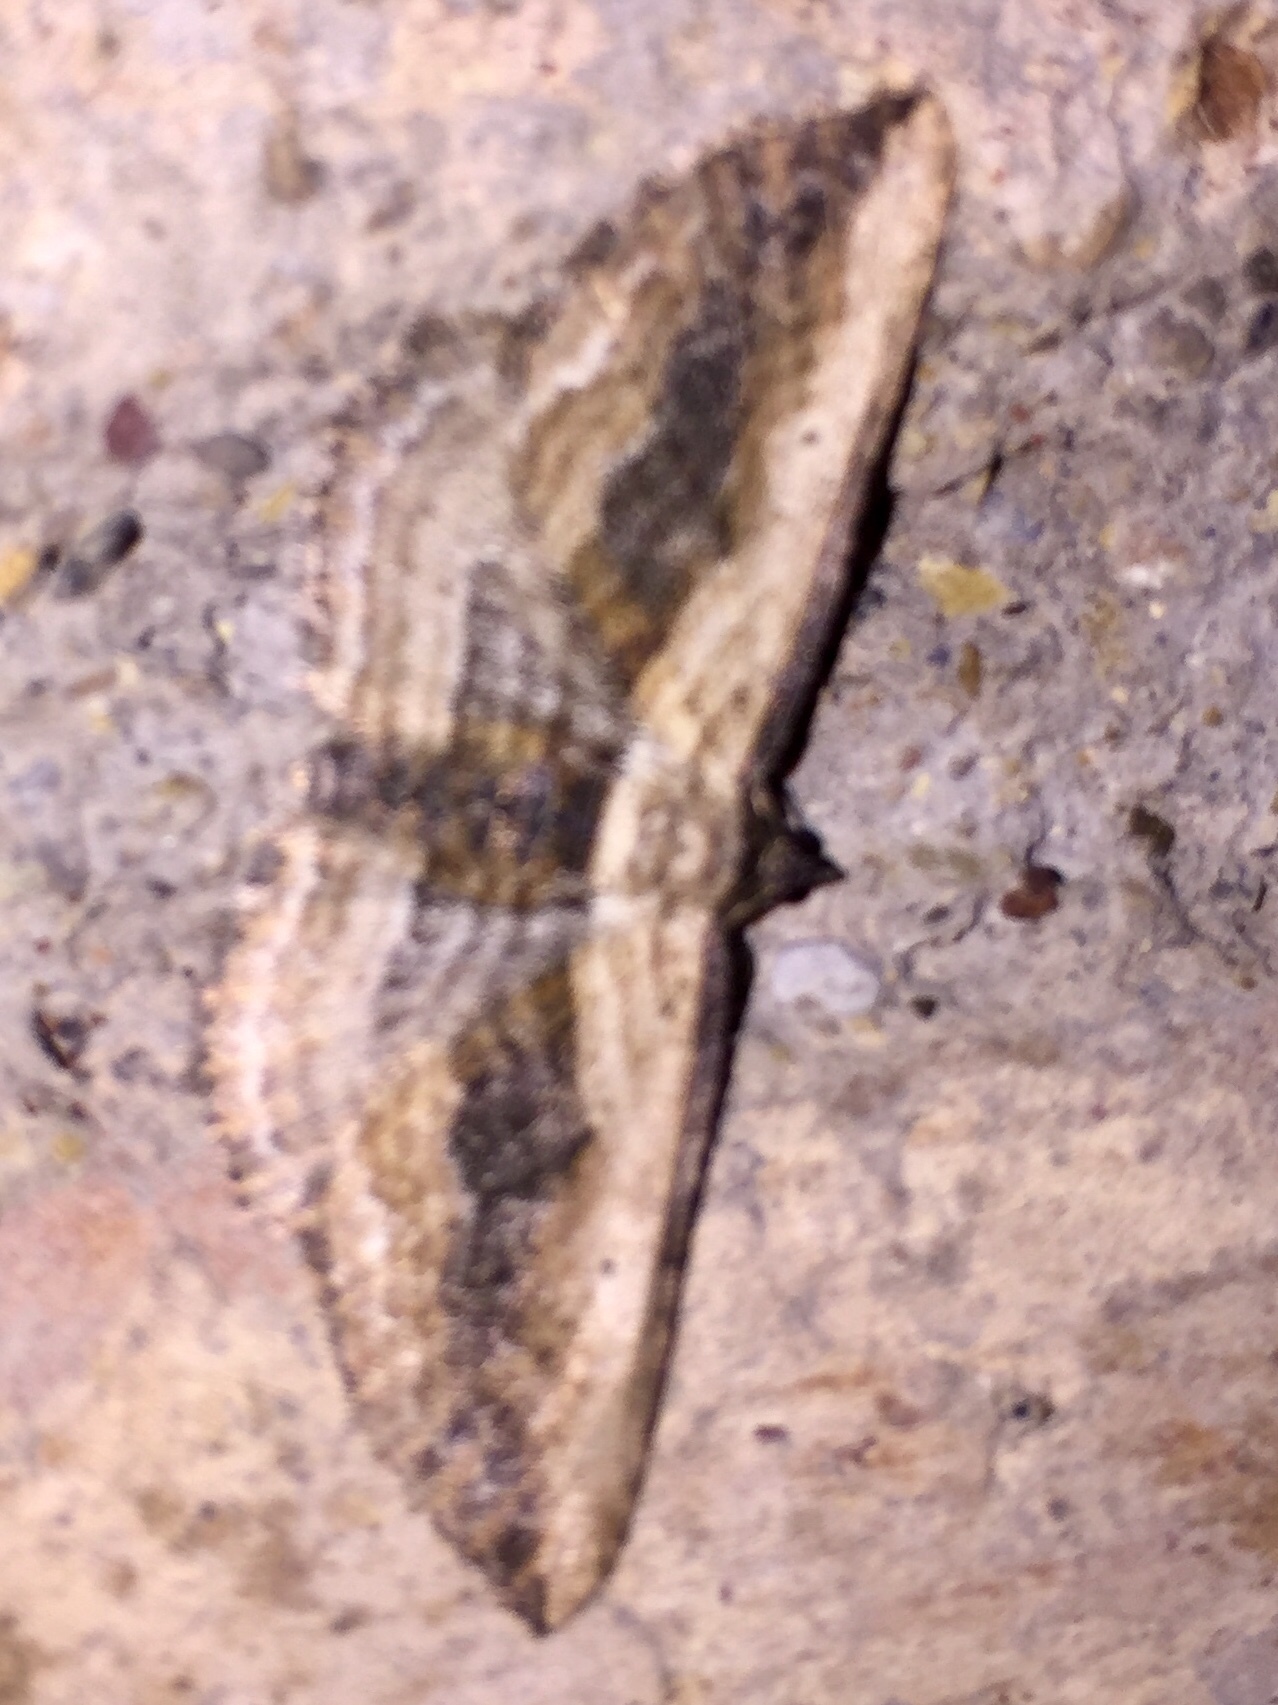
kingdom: Animalia
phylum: Arthropoda
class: Insecta
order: Lepidoptera
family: Geometridae
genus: Horisme
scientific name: Horisme vitalbata
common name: Small waved umber
